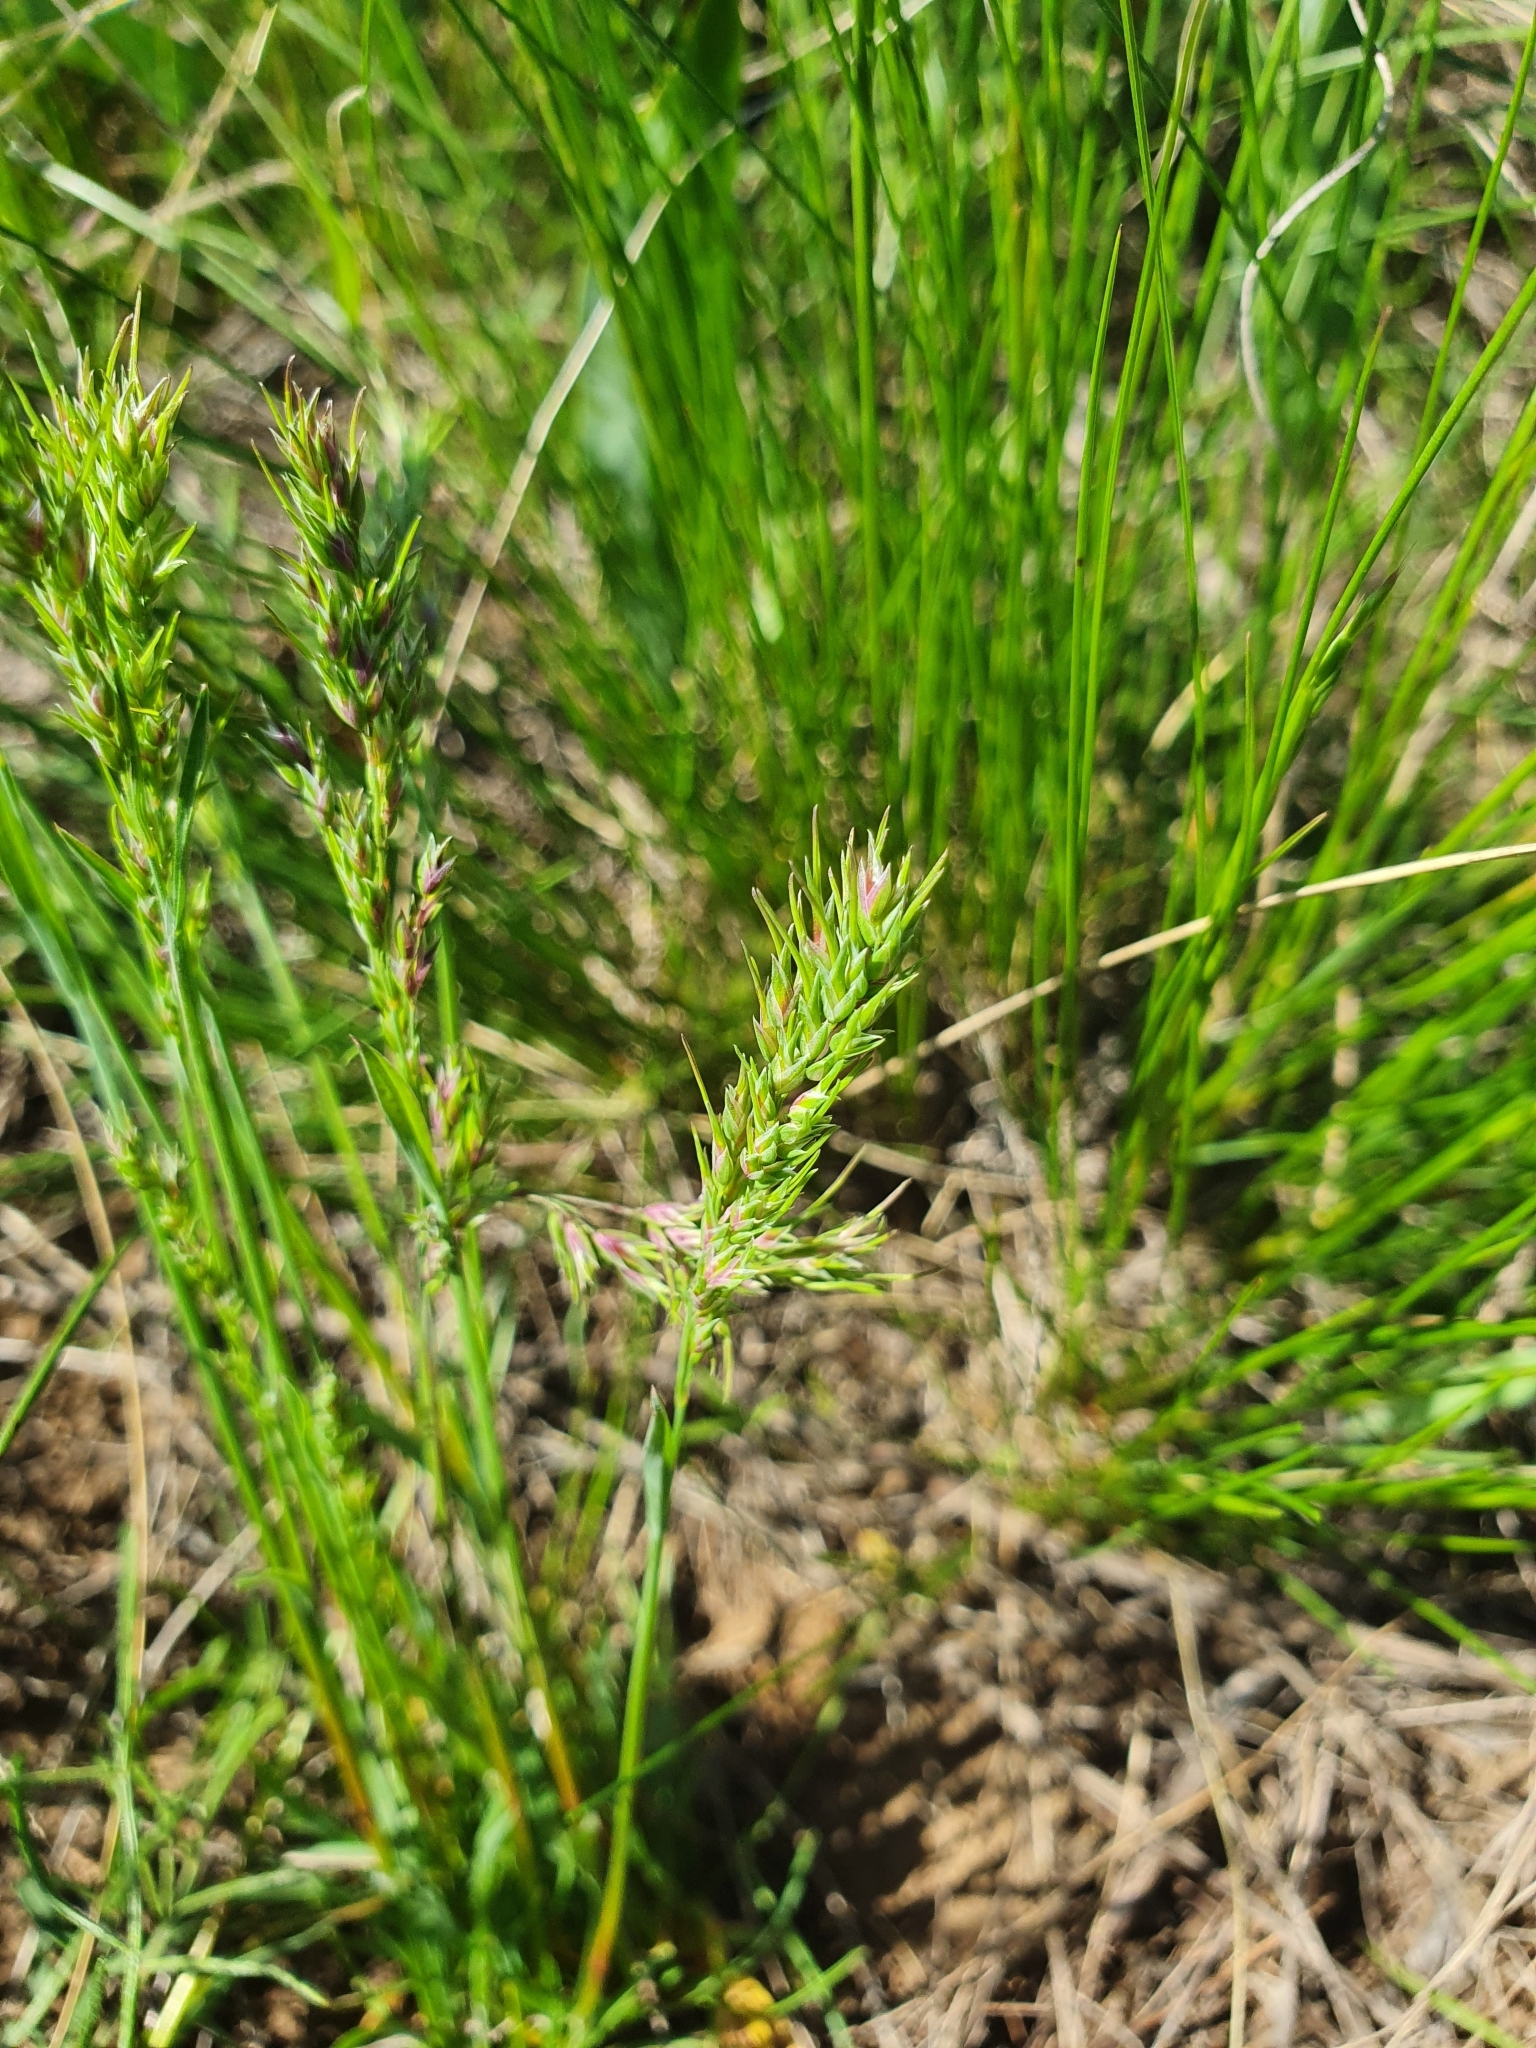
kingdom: Plantae
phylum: Tracheophyta
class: Liliopsida
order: Poales
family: Poaceae
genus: Poa
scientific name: Poa bulbosa
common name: Bulbous bluegrass
